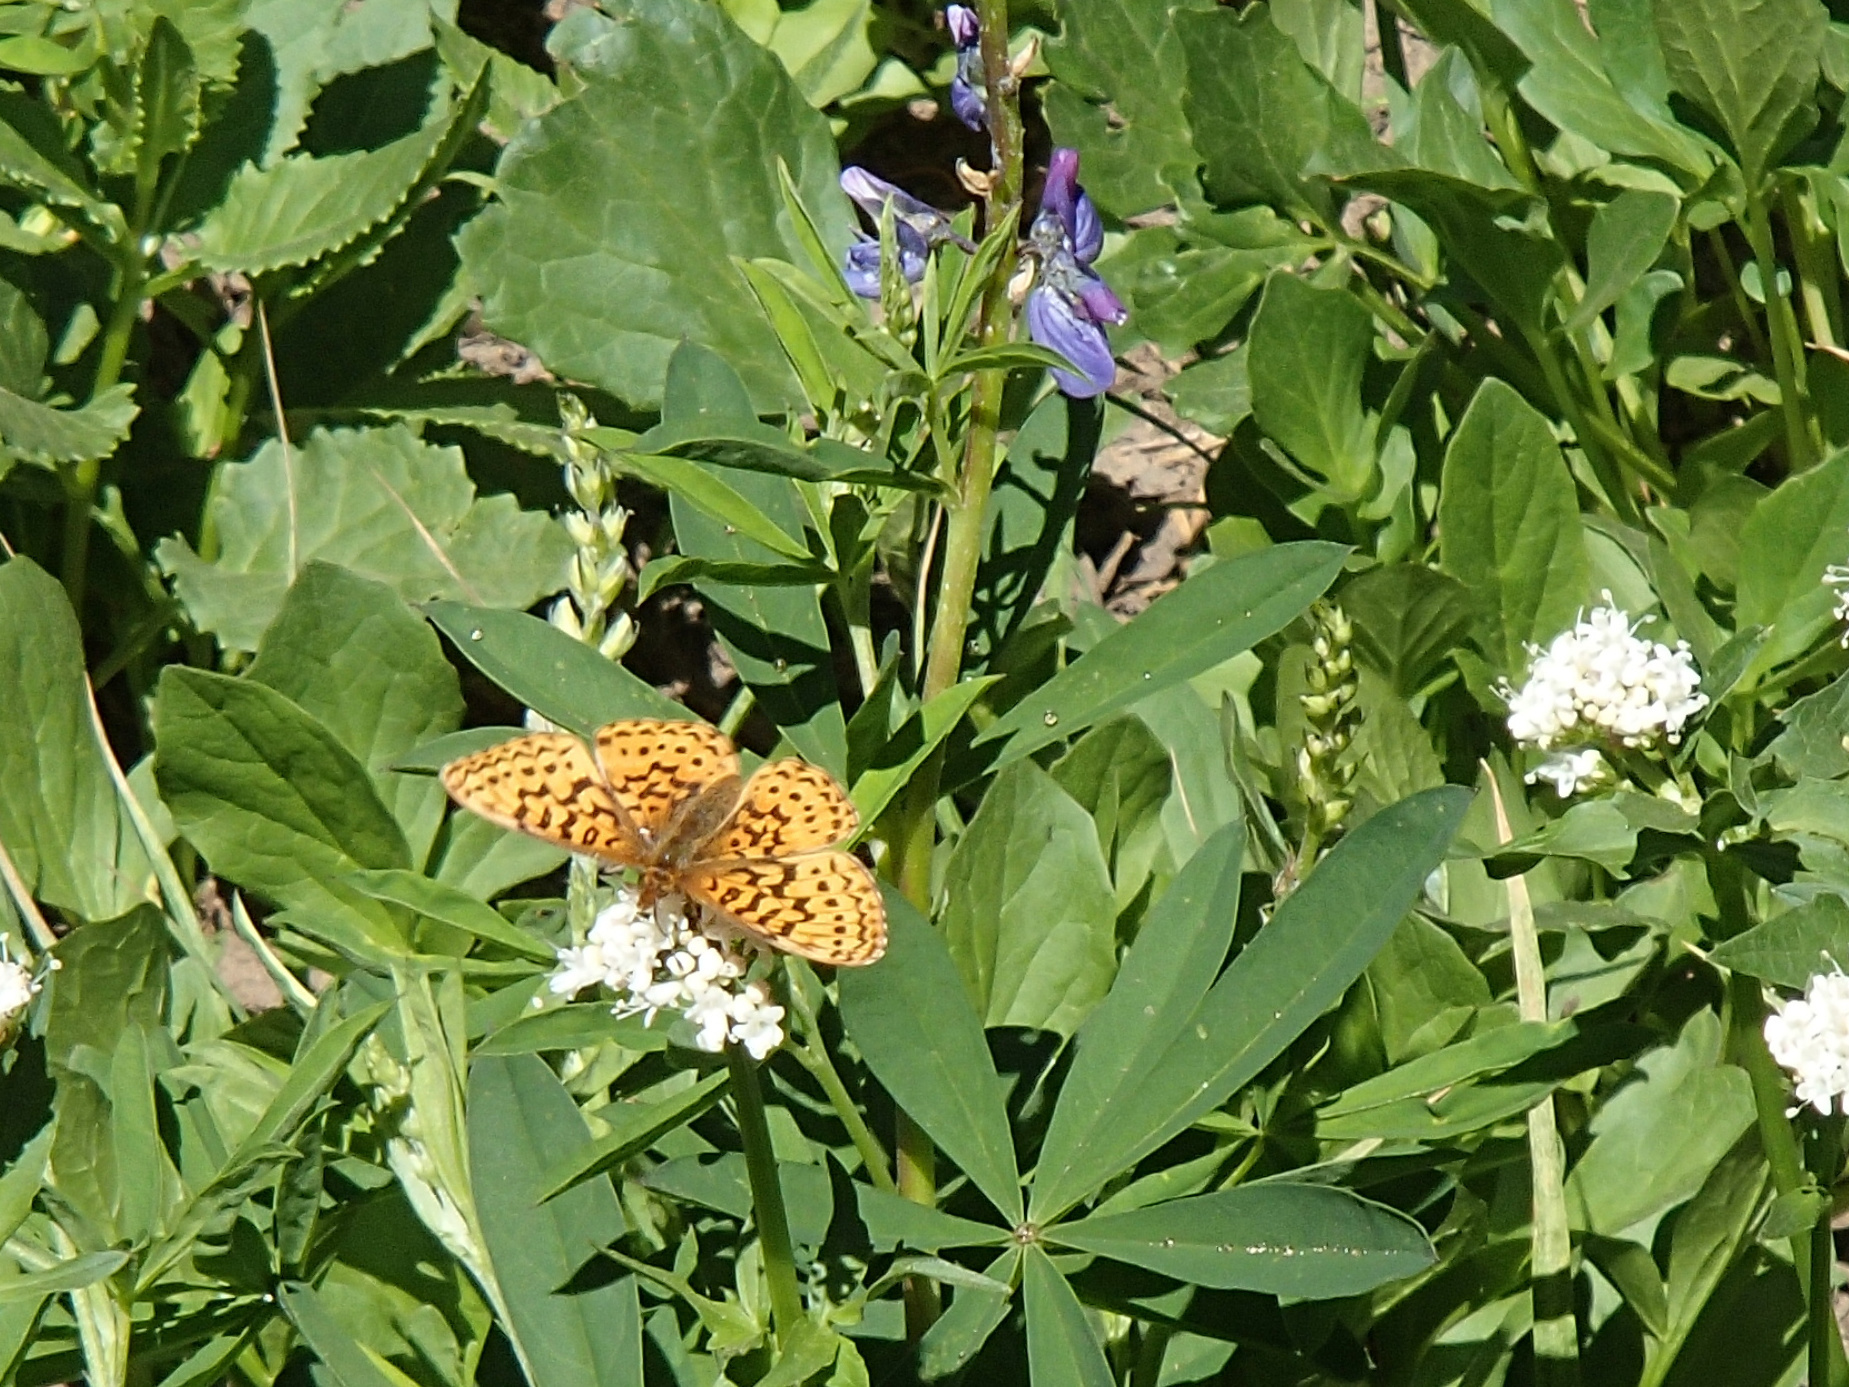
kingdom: Animalia
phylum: Arthropoda
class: Insecta
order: Lepidoptera
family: Nymphalidae
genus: Boloria
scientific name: Boloria epithore
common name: Pacific fritillary
